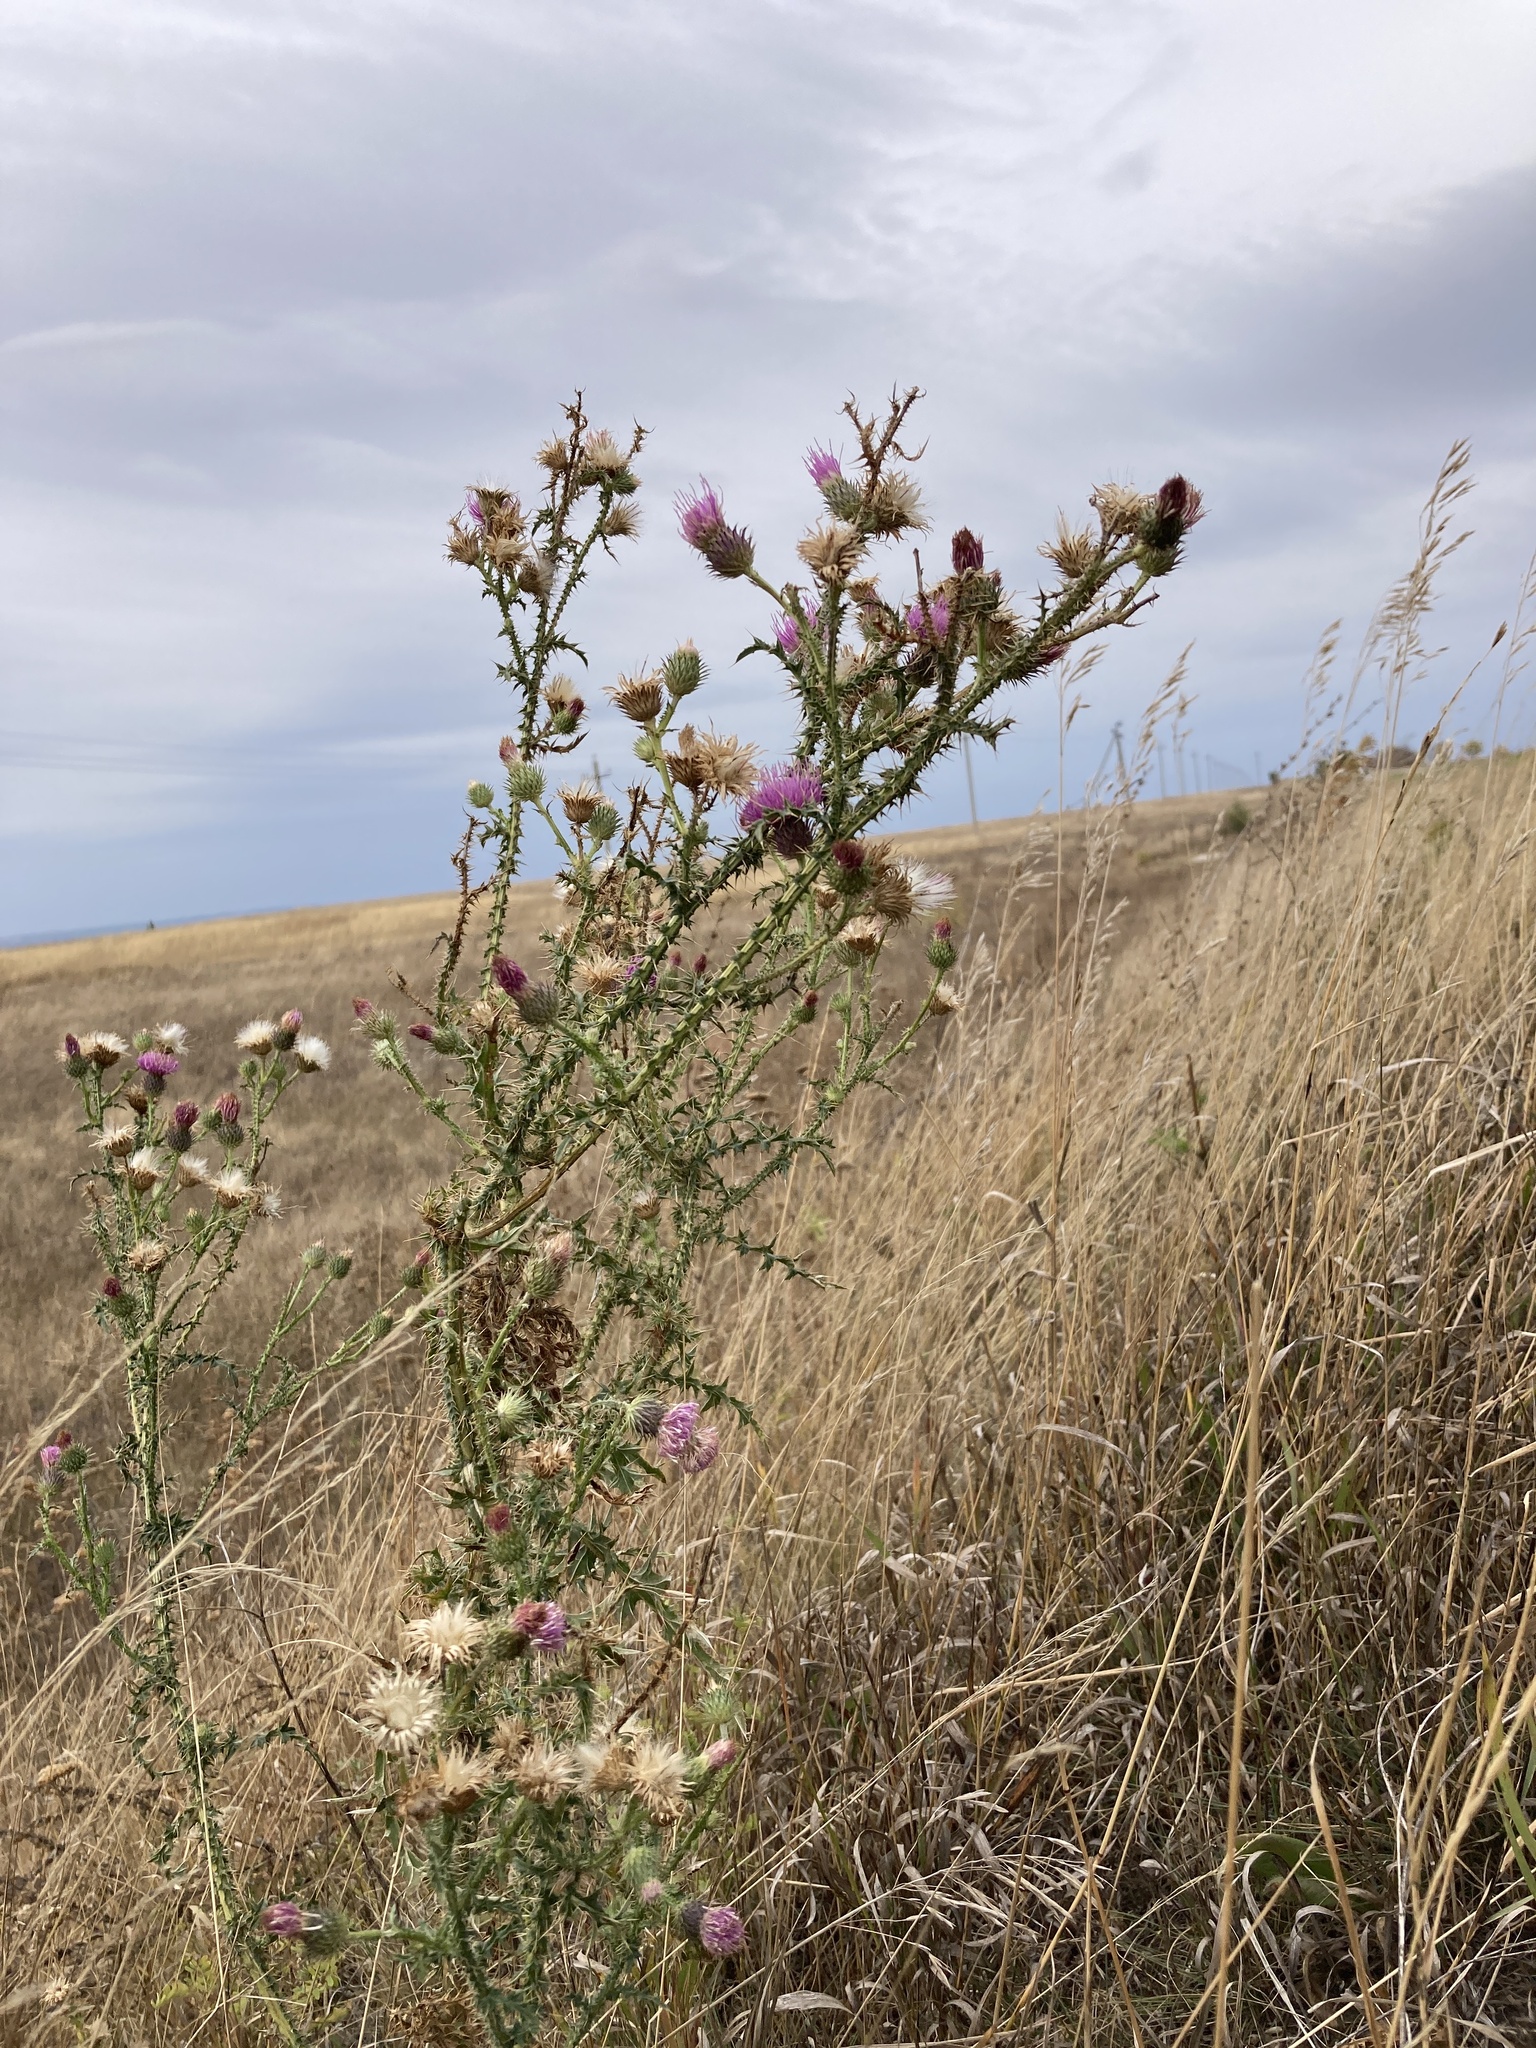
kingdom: Plantae
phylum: Tracheophyta
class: Magnoliopsida
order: Asterales
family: Asteraceae
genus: Carduus
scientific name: Carduus acanthoides
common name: Plumeless thistle
